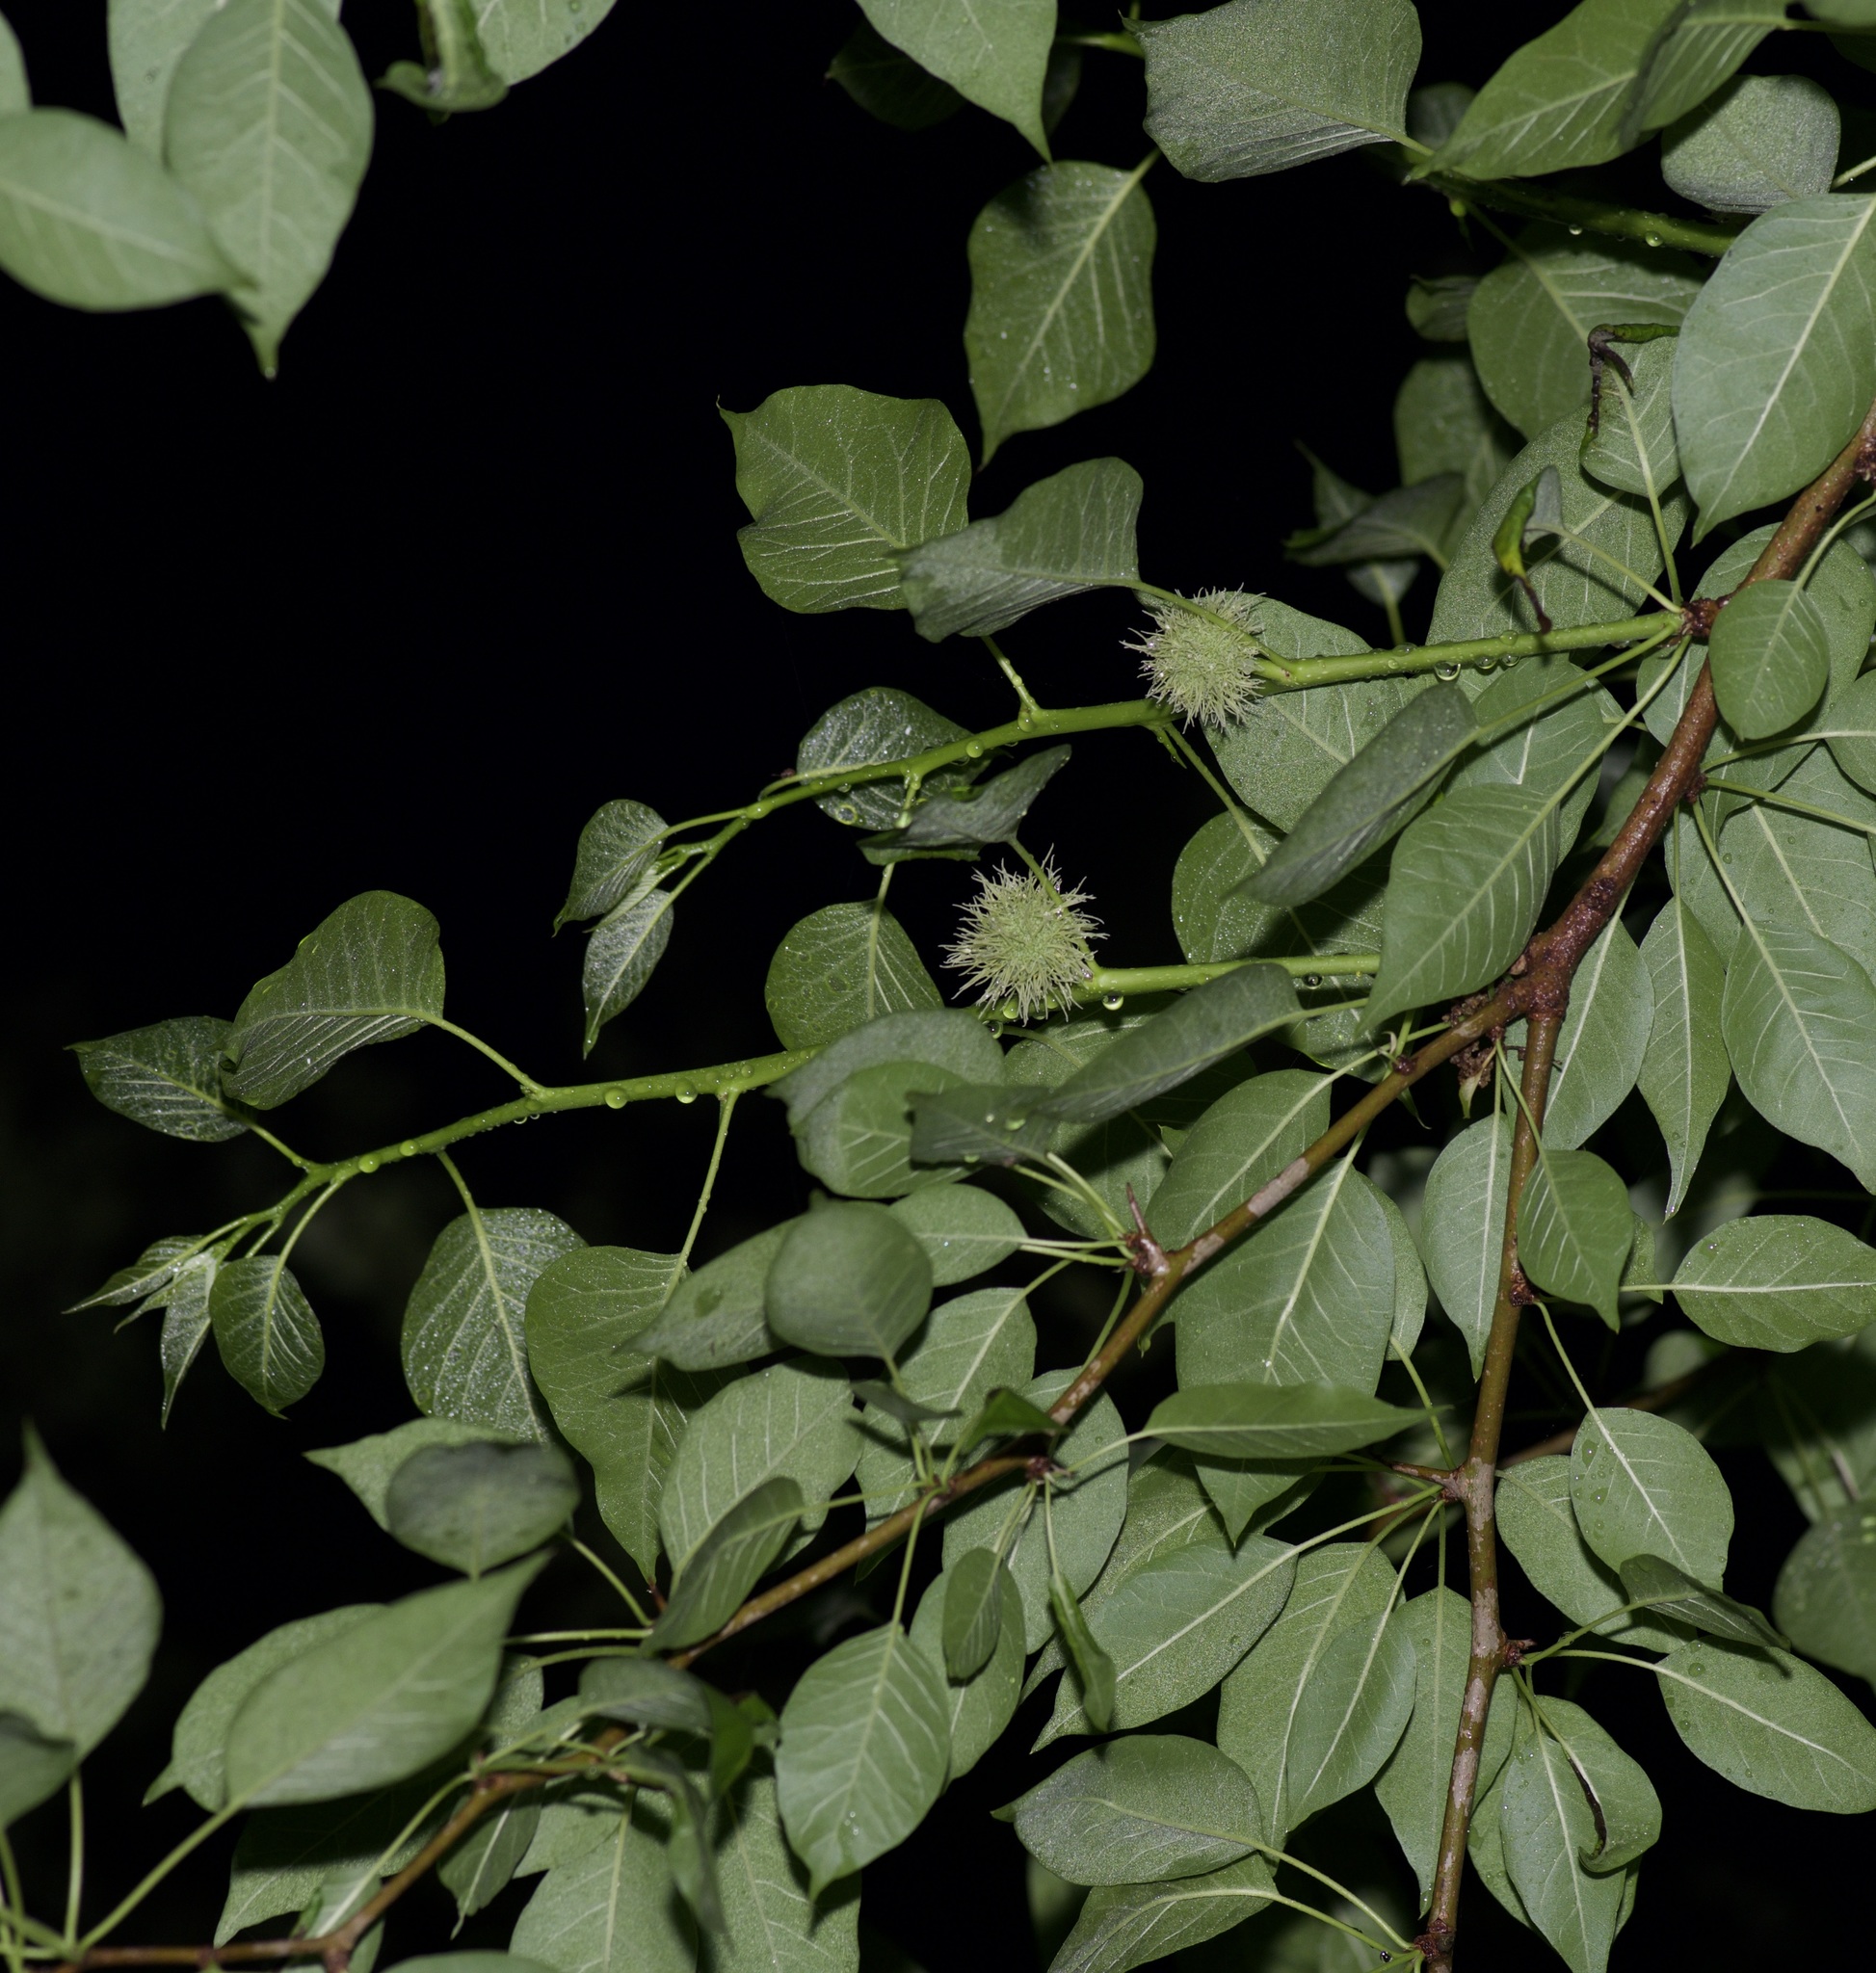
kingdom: Plantae
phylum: Tracheophyta
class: Magnoliopsida
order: Rosales
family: Moraceae
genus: Maclura
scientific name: Maclura pomifera
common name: Osage-orange
